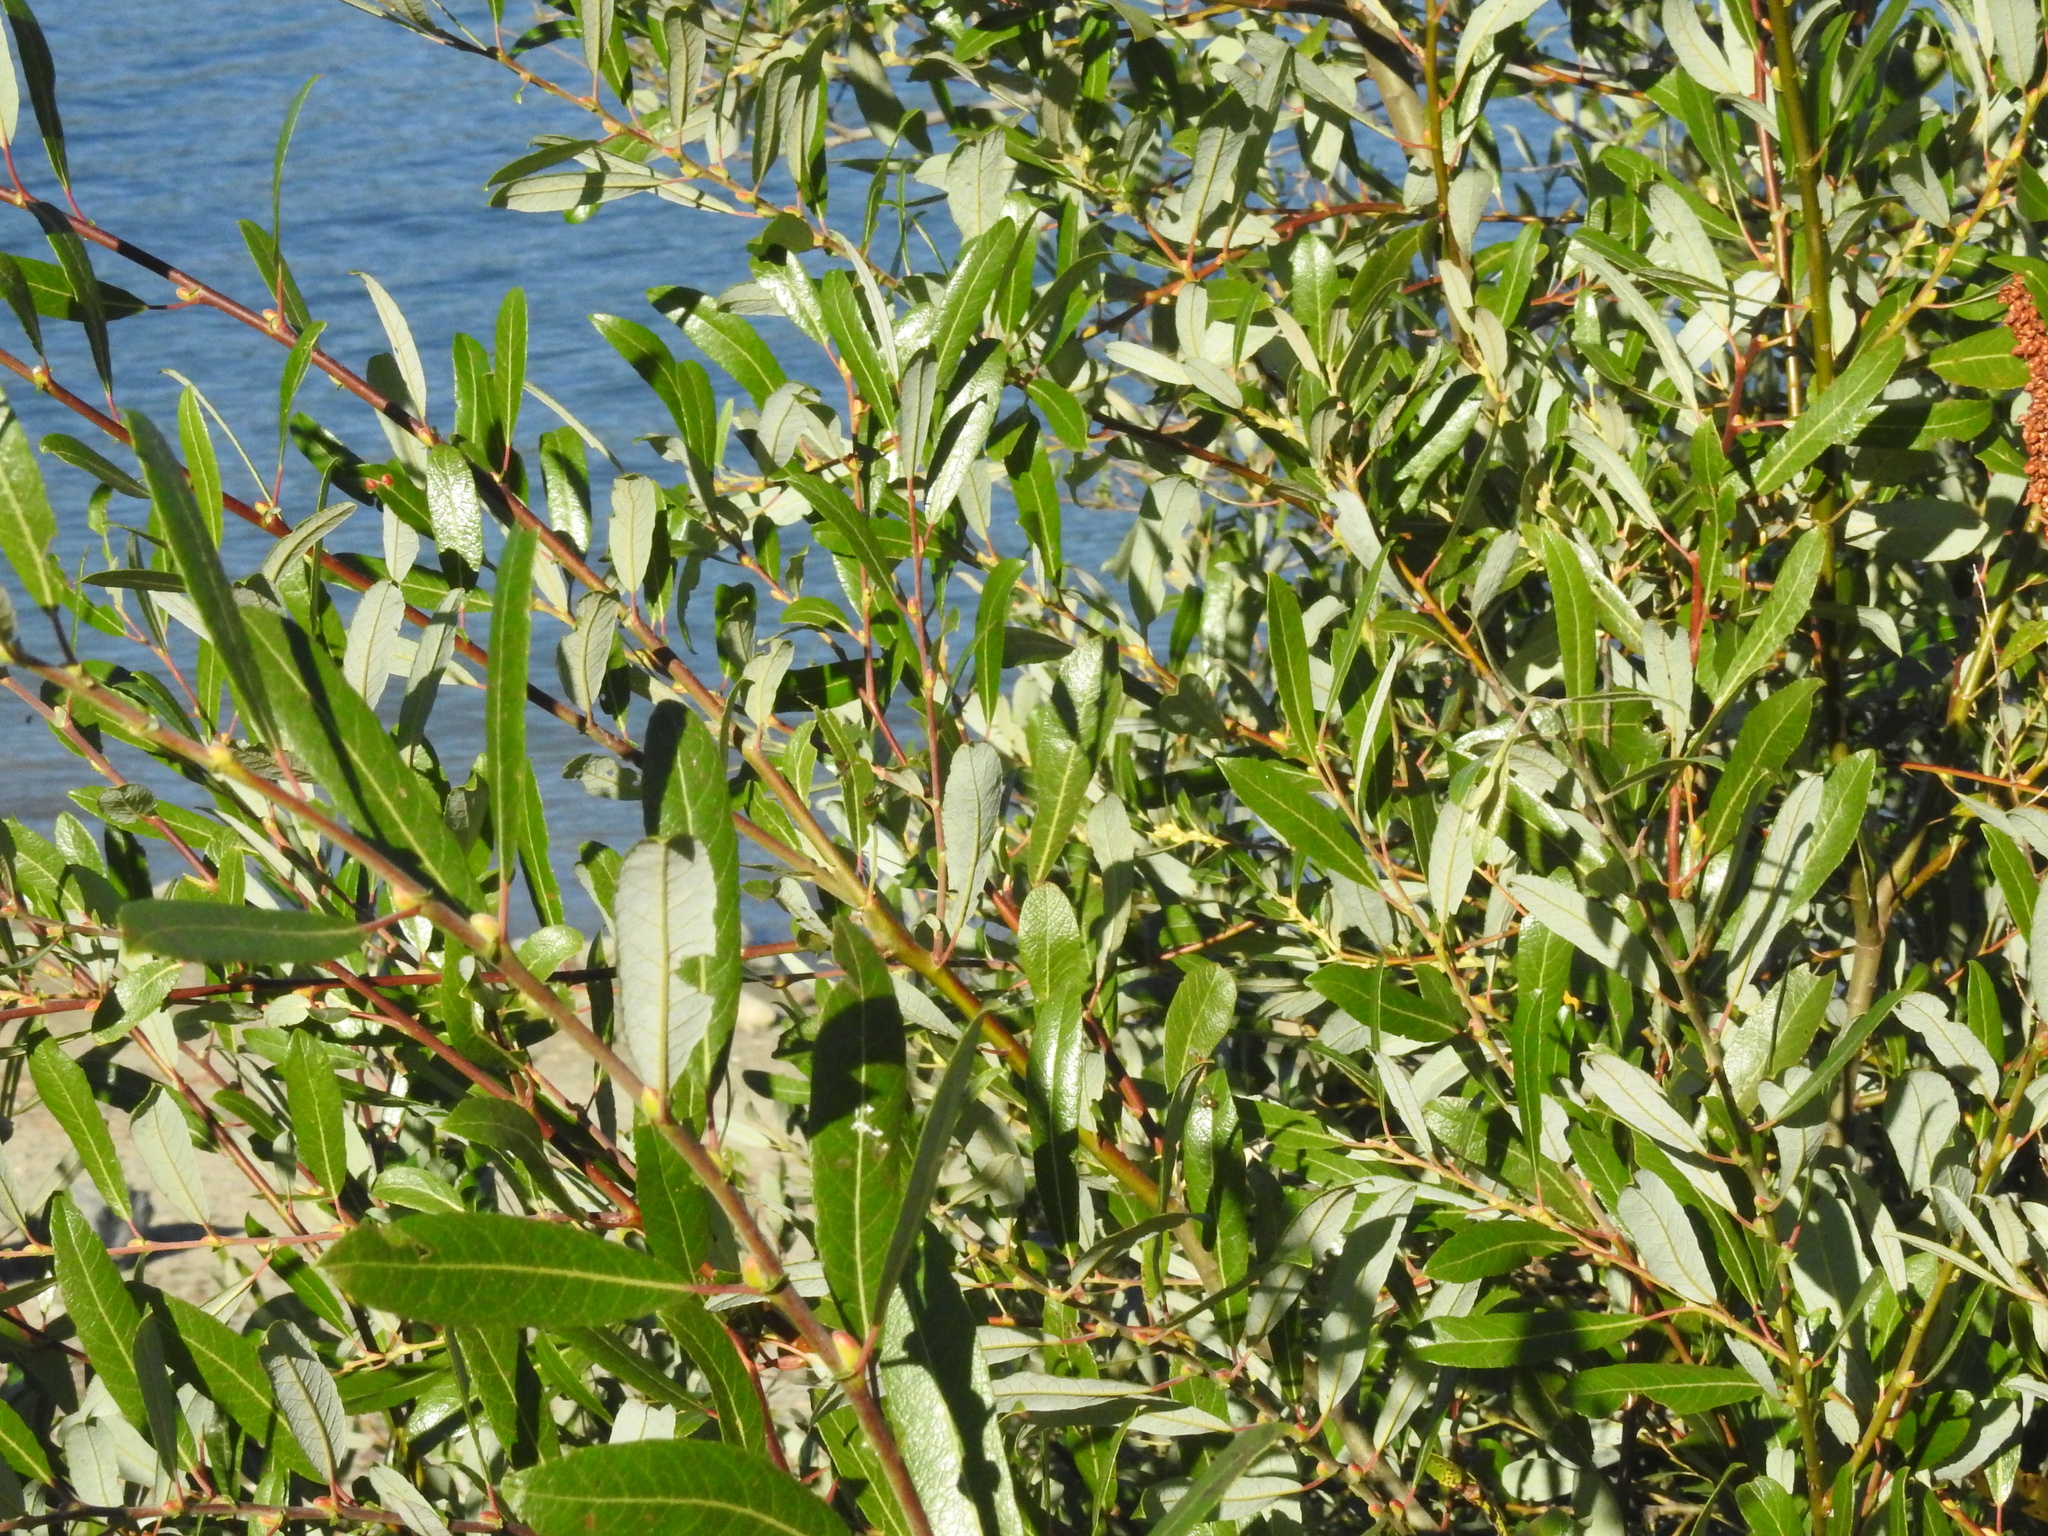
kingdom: Plantae
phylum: Tracheophyta
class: Magnoliopsida
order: Malpighiales
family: Salicaceae
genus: Salix
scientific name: Salix lasiolepis
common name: Arroyo willow
